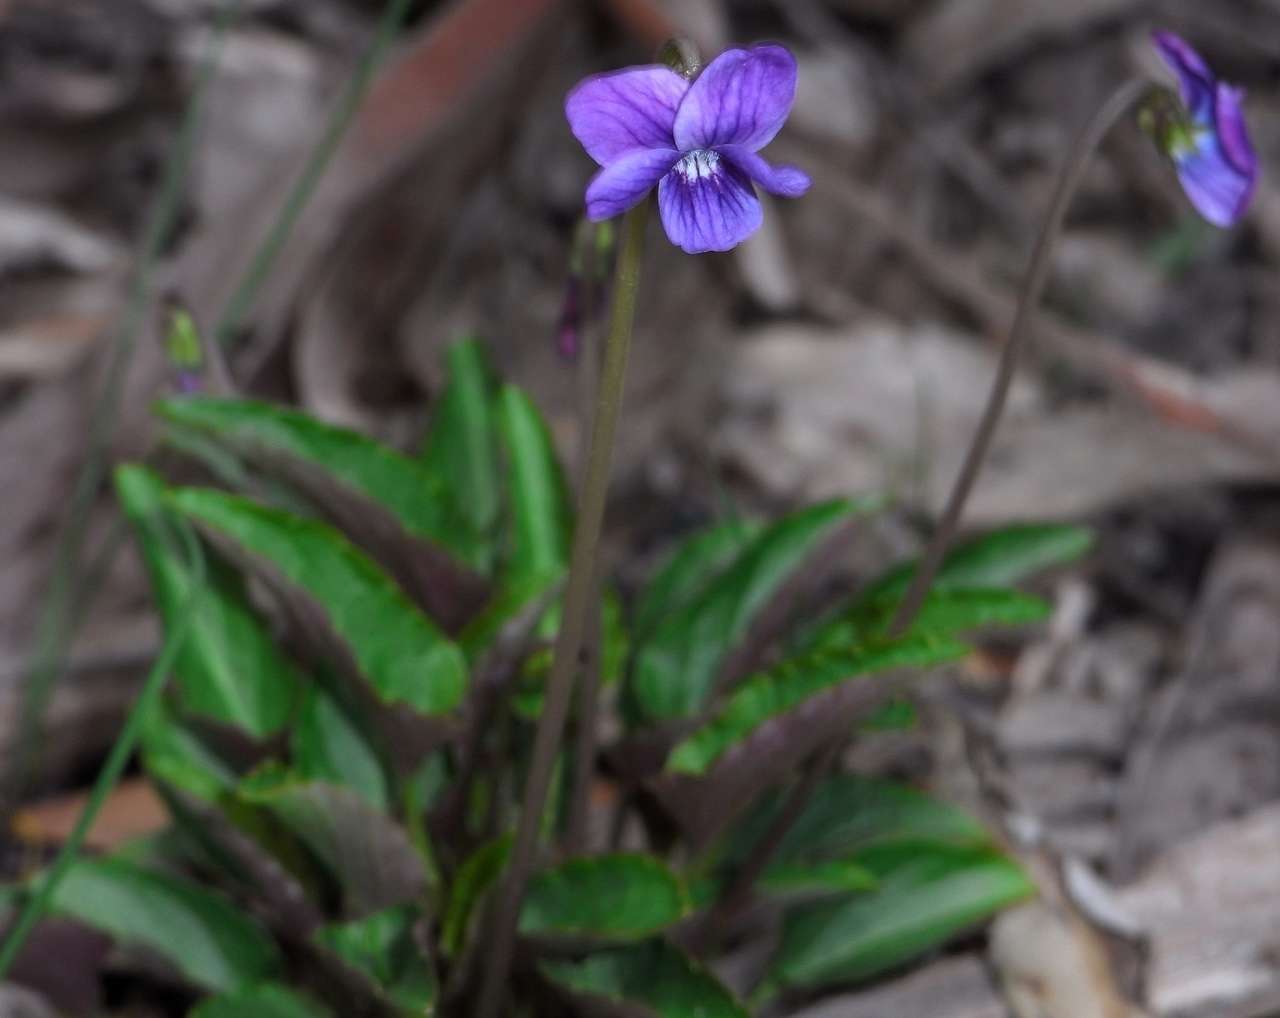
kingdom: Plantae
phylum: Tracheophyta
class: Magnoliopsida
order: Malpighiales
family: Violaceae
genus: Viola
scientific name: Viola betonicifolia
